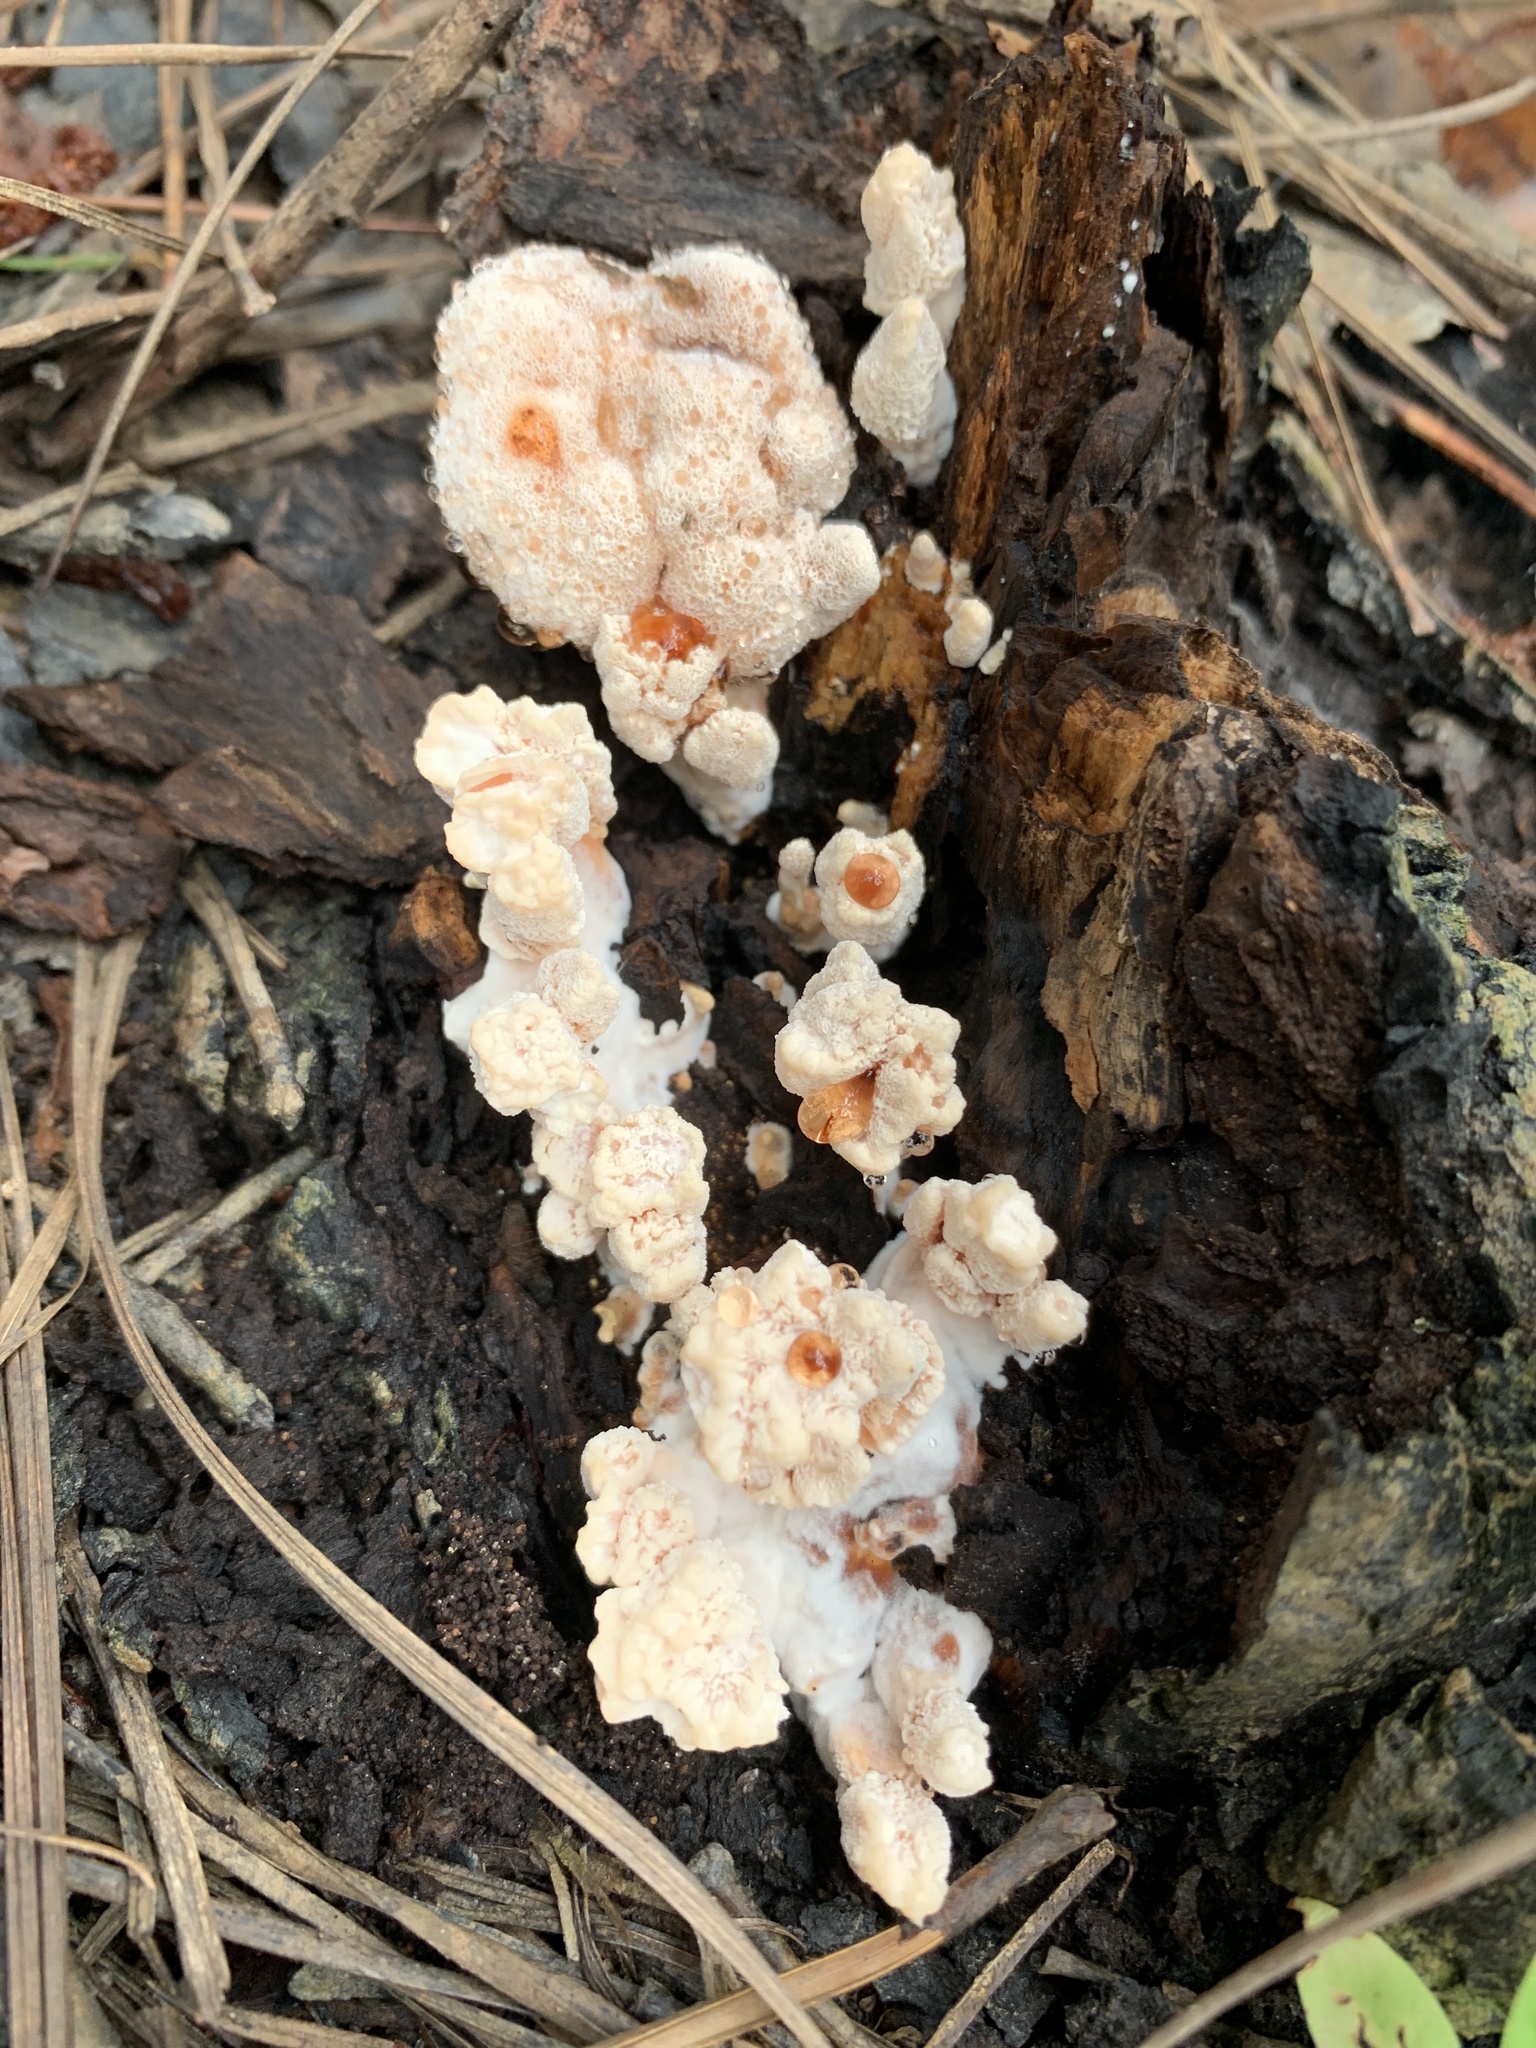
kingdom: Fungi
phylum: Basidiomycota
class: Agaricomycetes
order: Polyporales
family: Podoscyphaceae
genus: Abortiporus
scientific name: Abortiporus biennis
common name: Blushing rosette
